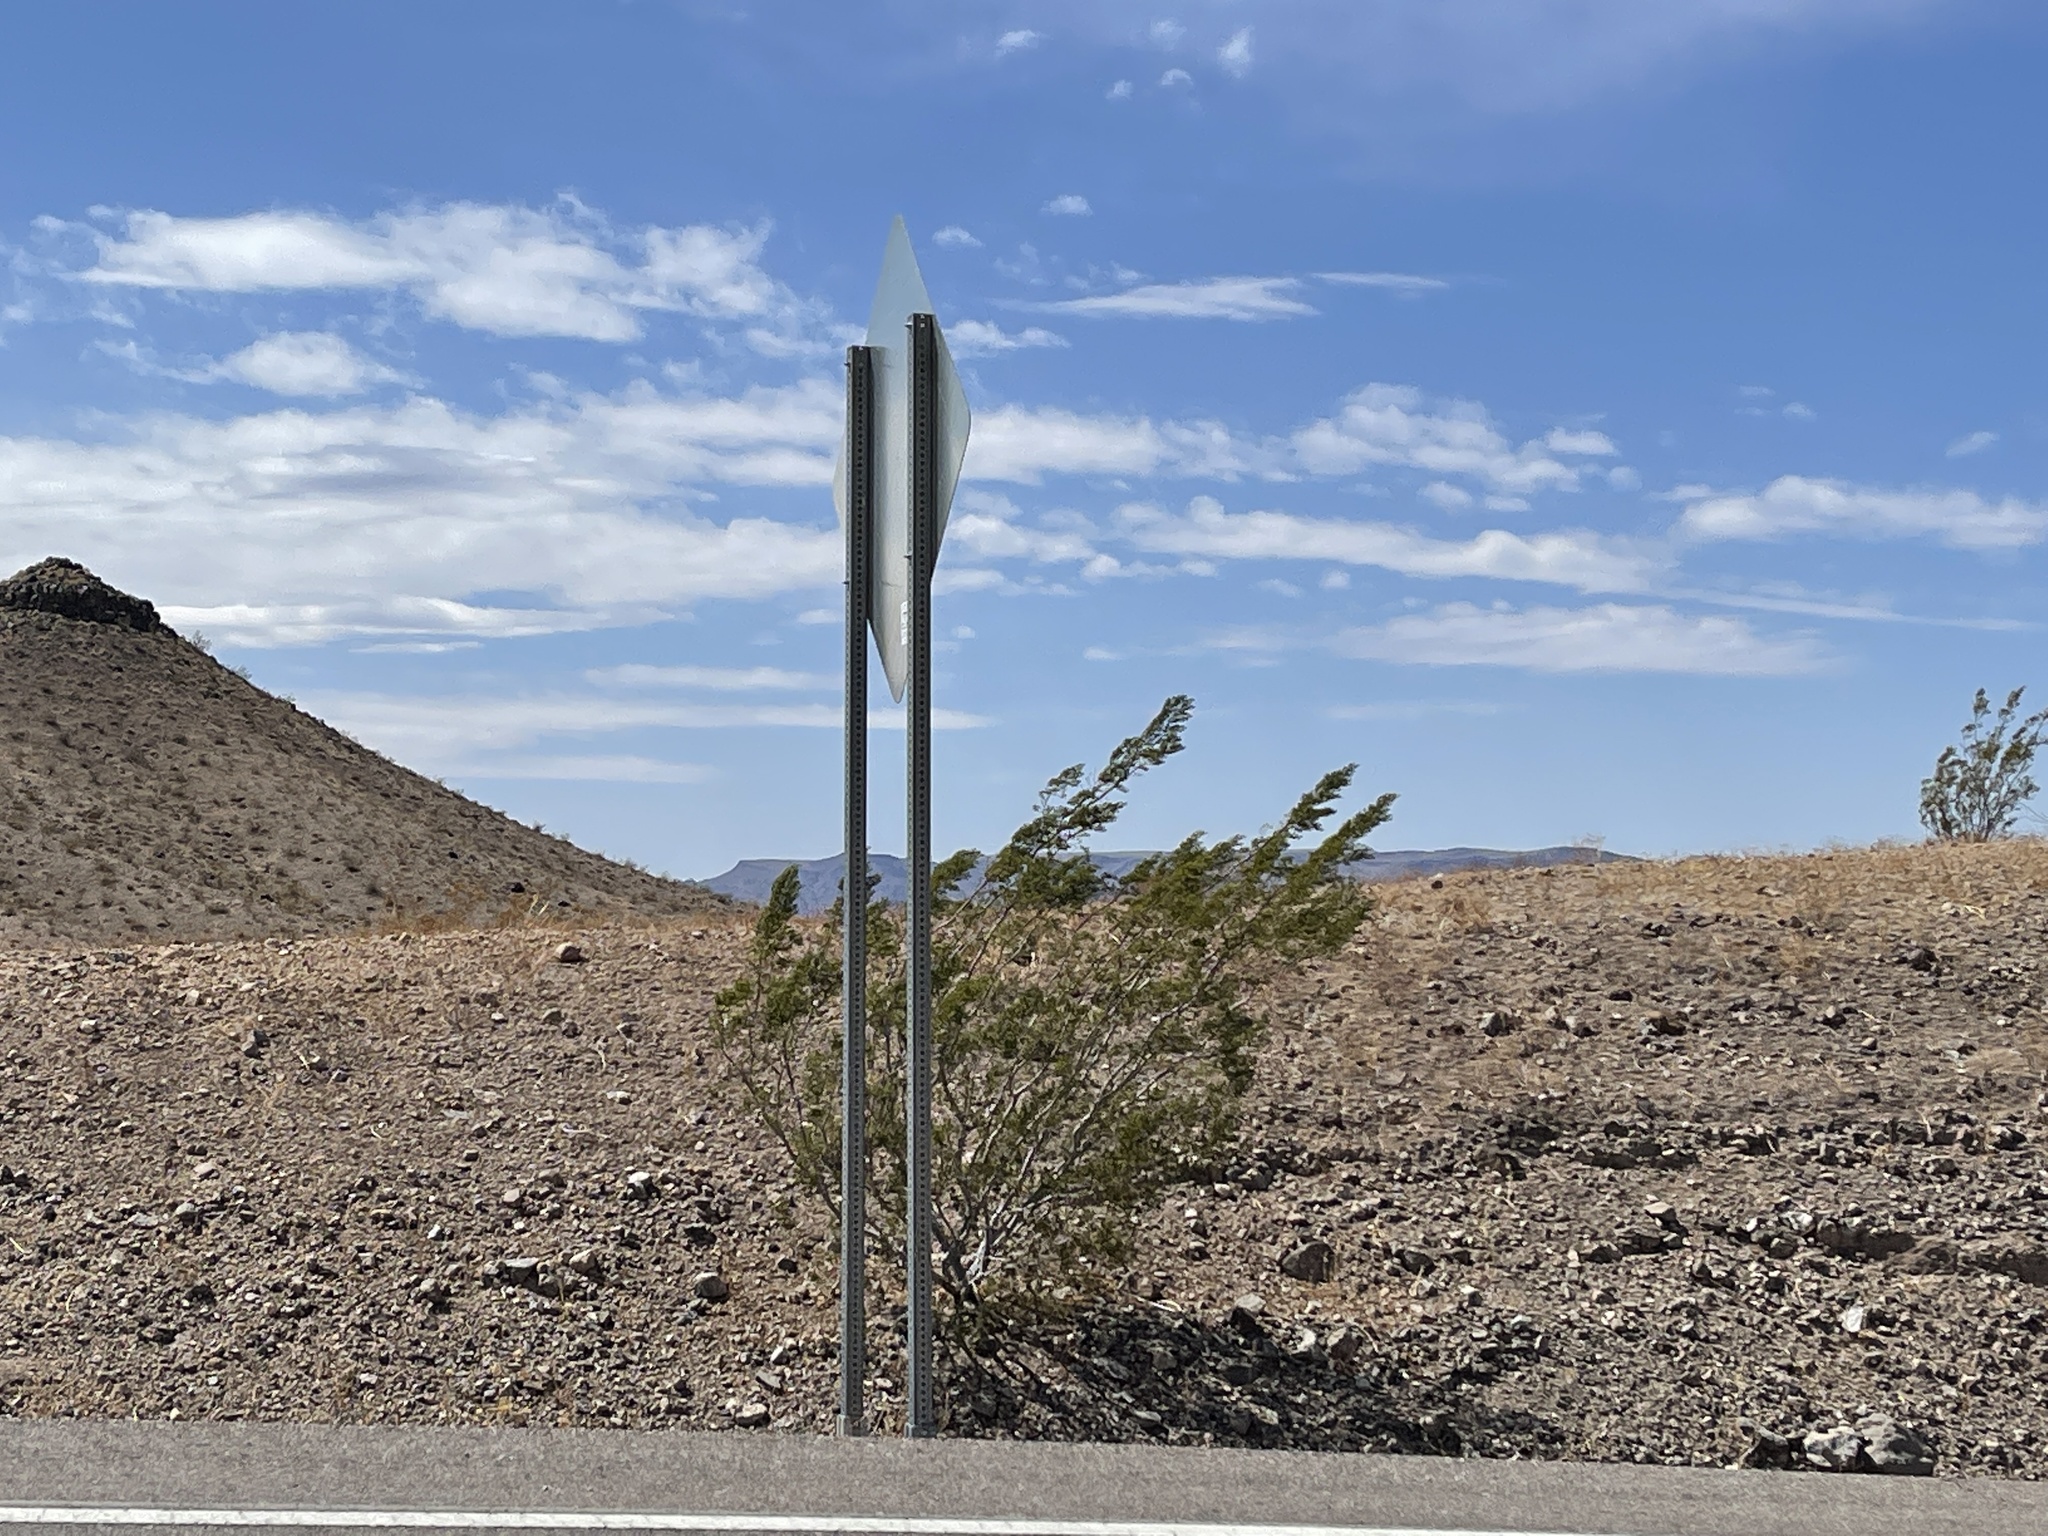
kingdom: Plantae
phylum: Tracheophyta
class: Magnoliopsida
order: Zygophyllales
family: Zygophyllaceae
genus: Larrea
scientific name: Larrea tridentata
